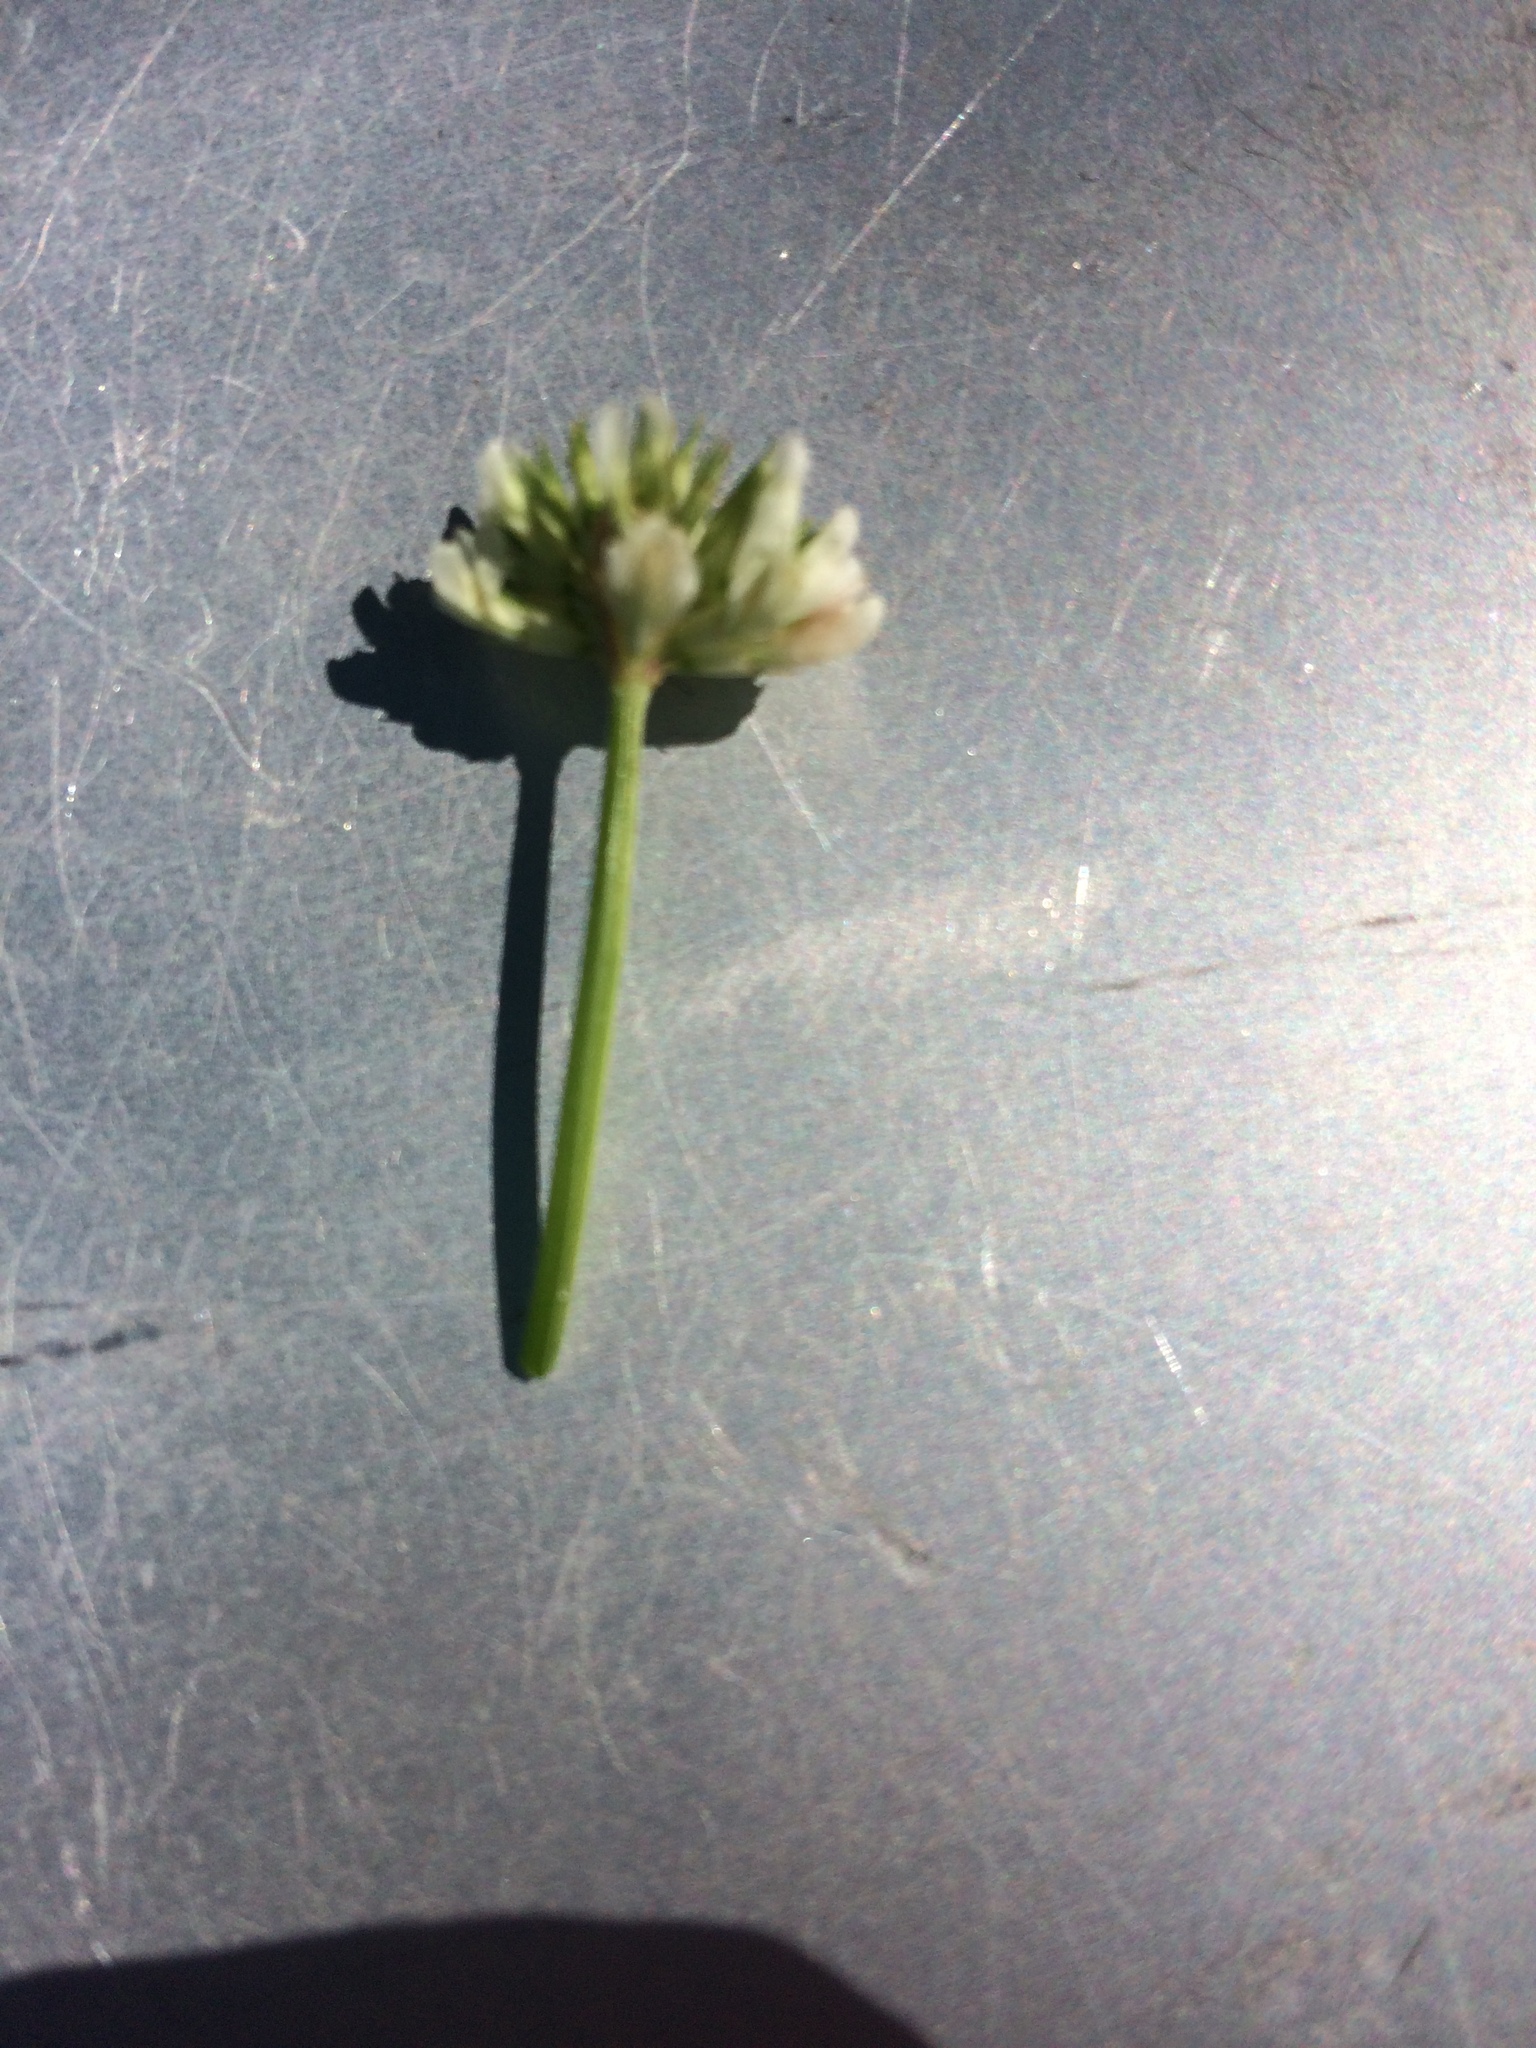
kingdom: Plantae
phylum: Tracheophyta
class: Magnoliopsida
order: Fabales
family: Fabaceae
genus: Trifolium
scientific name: Trifolium repens
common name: White clover
